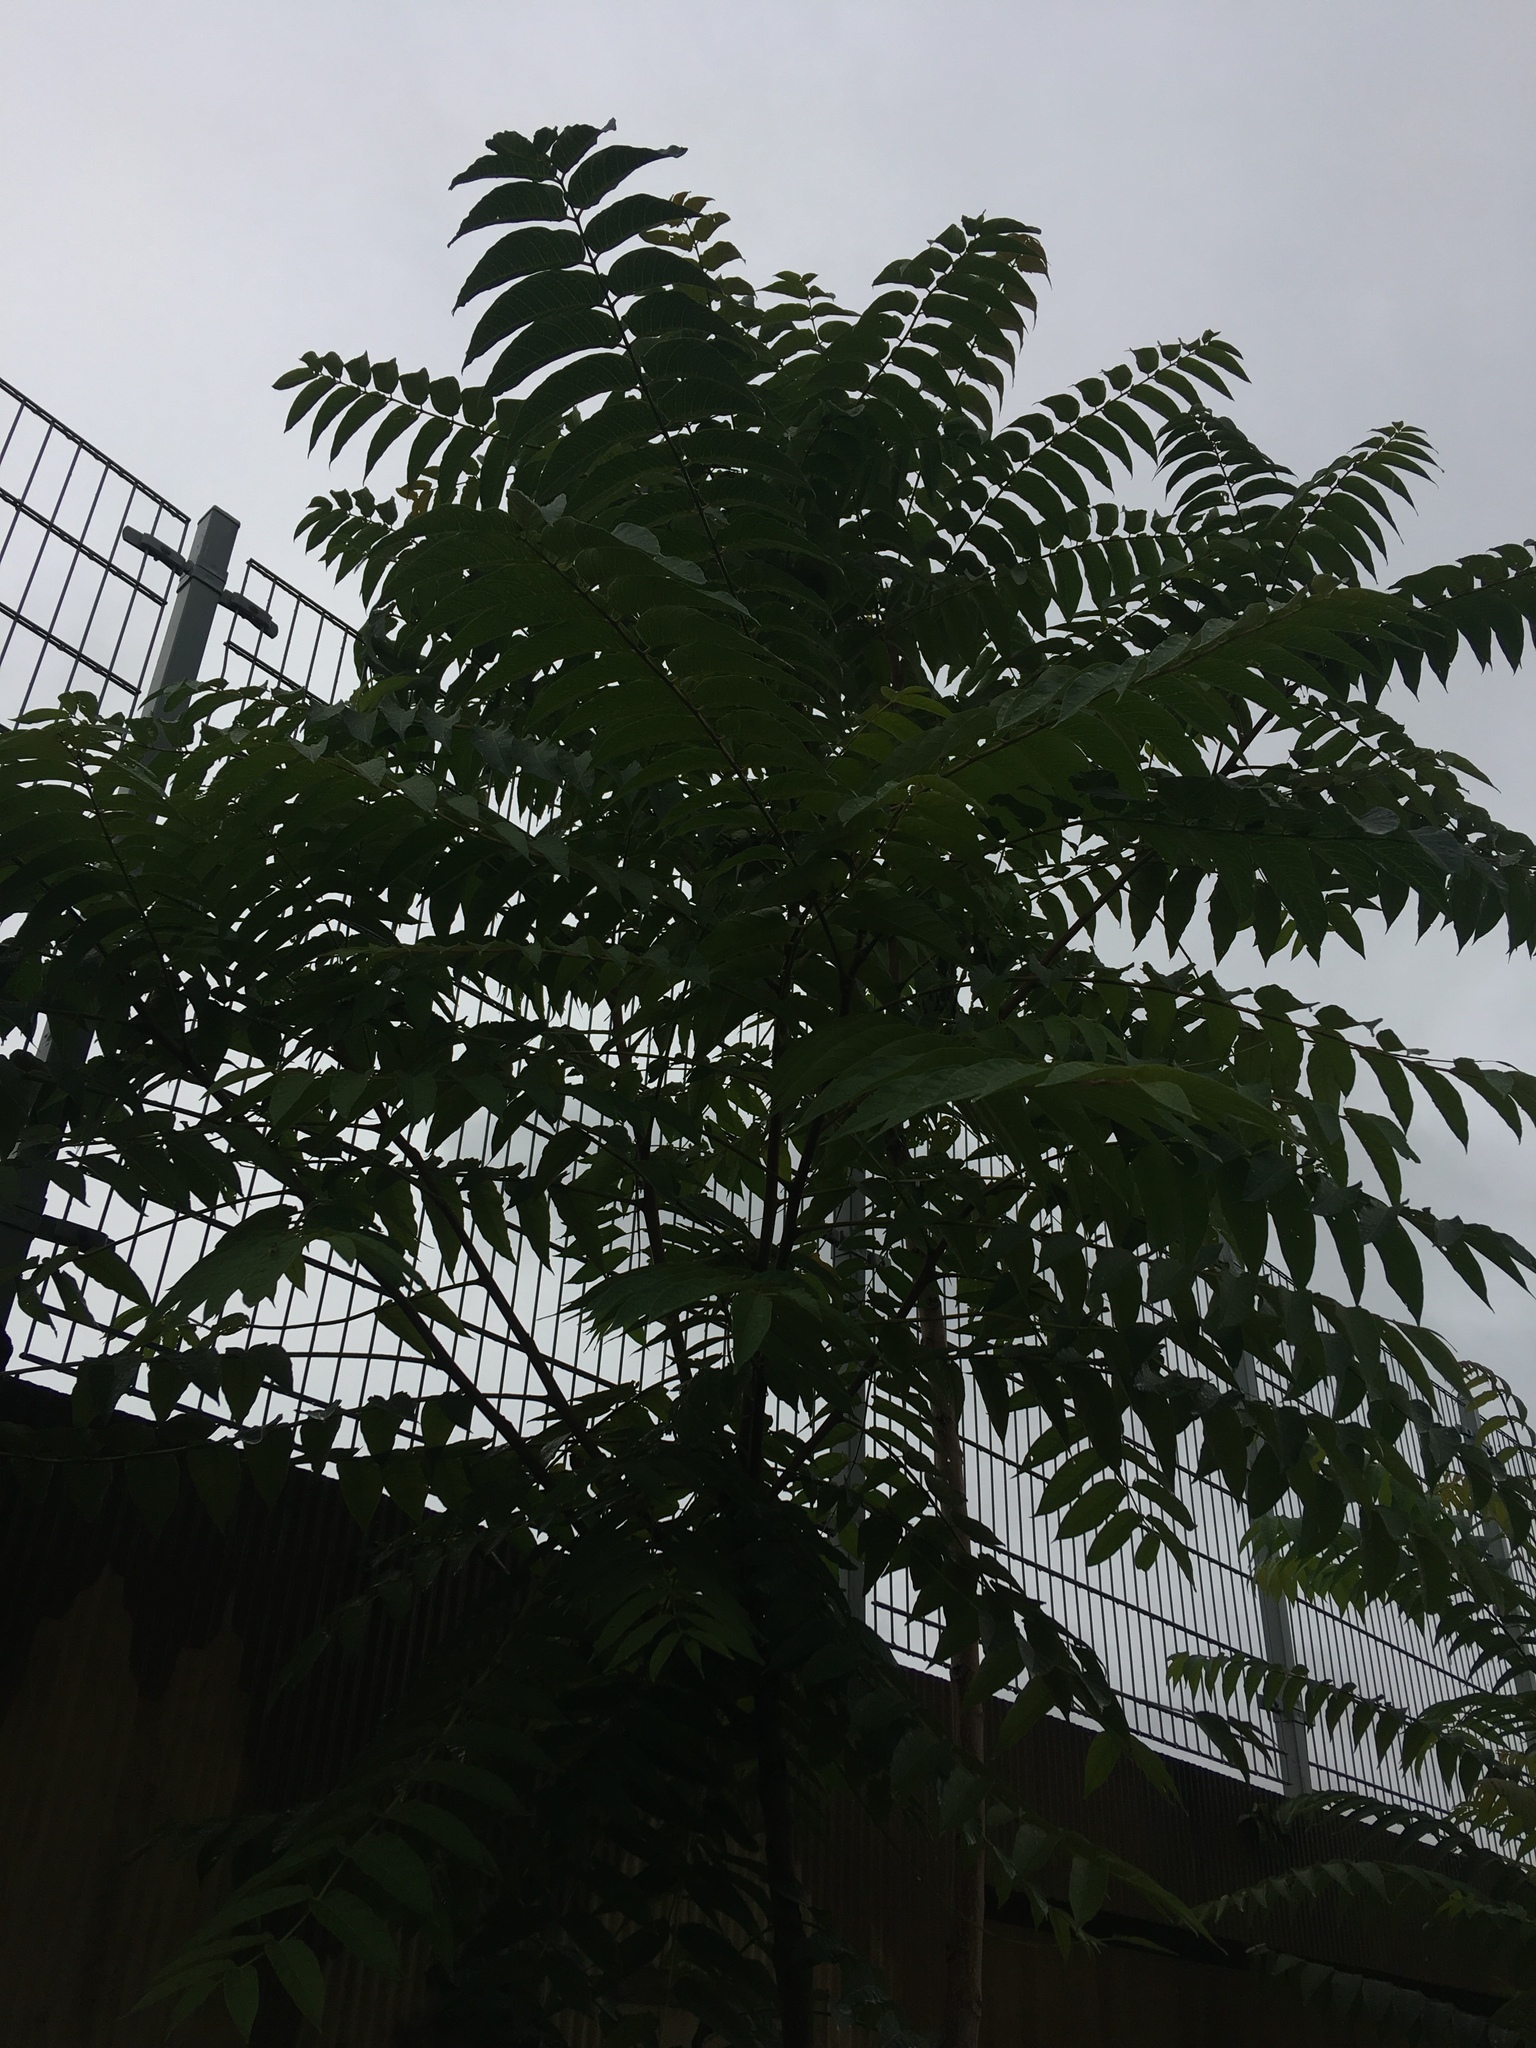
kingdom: Plantae
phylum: Tracheophyta
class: Magnoliopsida
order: Sapindales
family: Simaroubaceae
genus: Ailanthus
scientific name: Ailanthus altissima
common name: Tree-of-heaven
